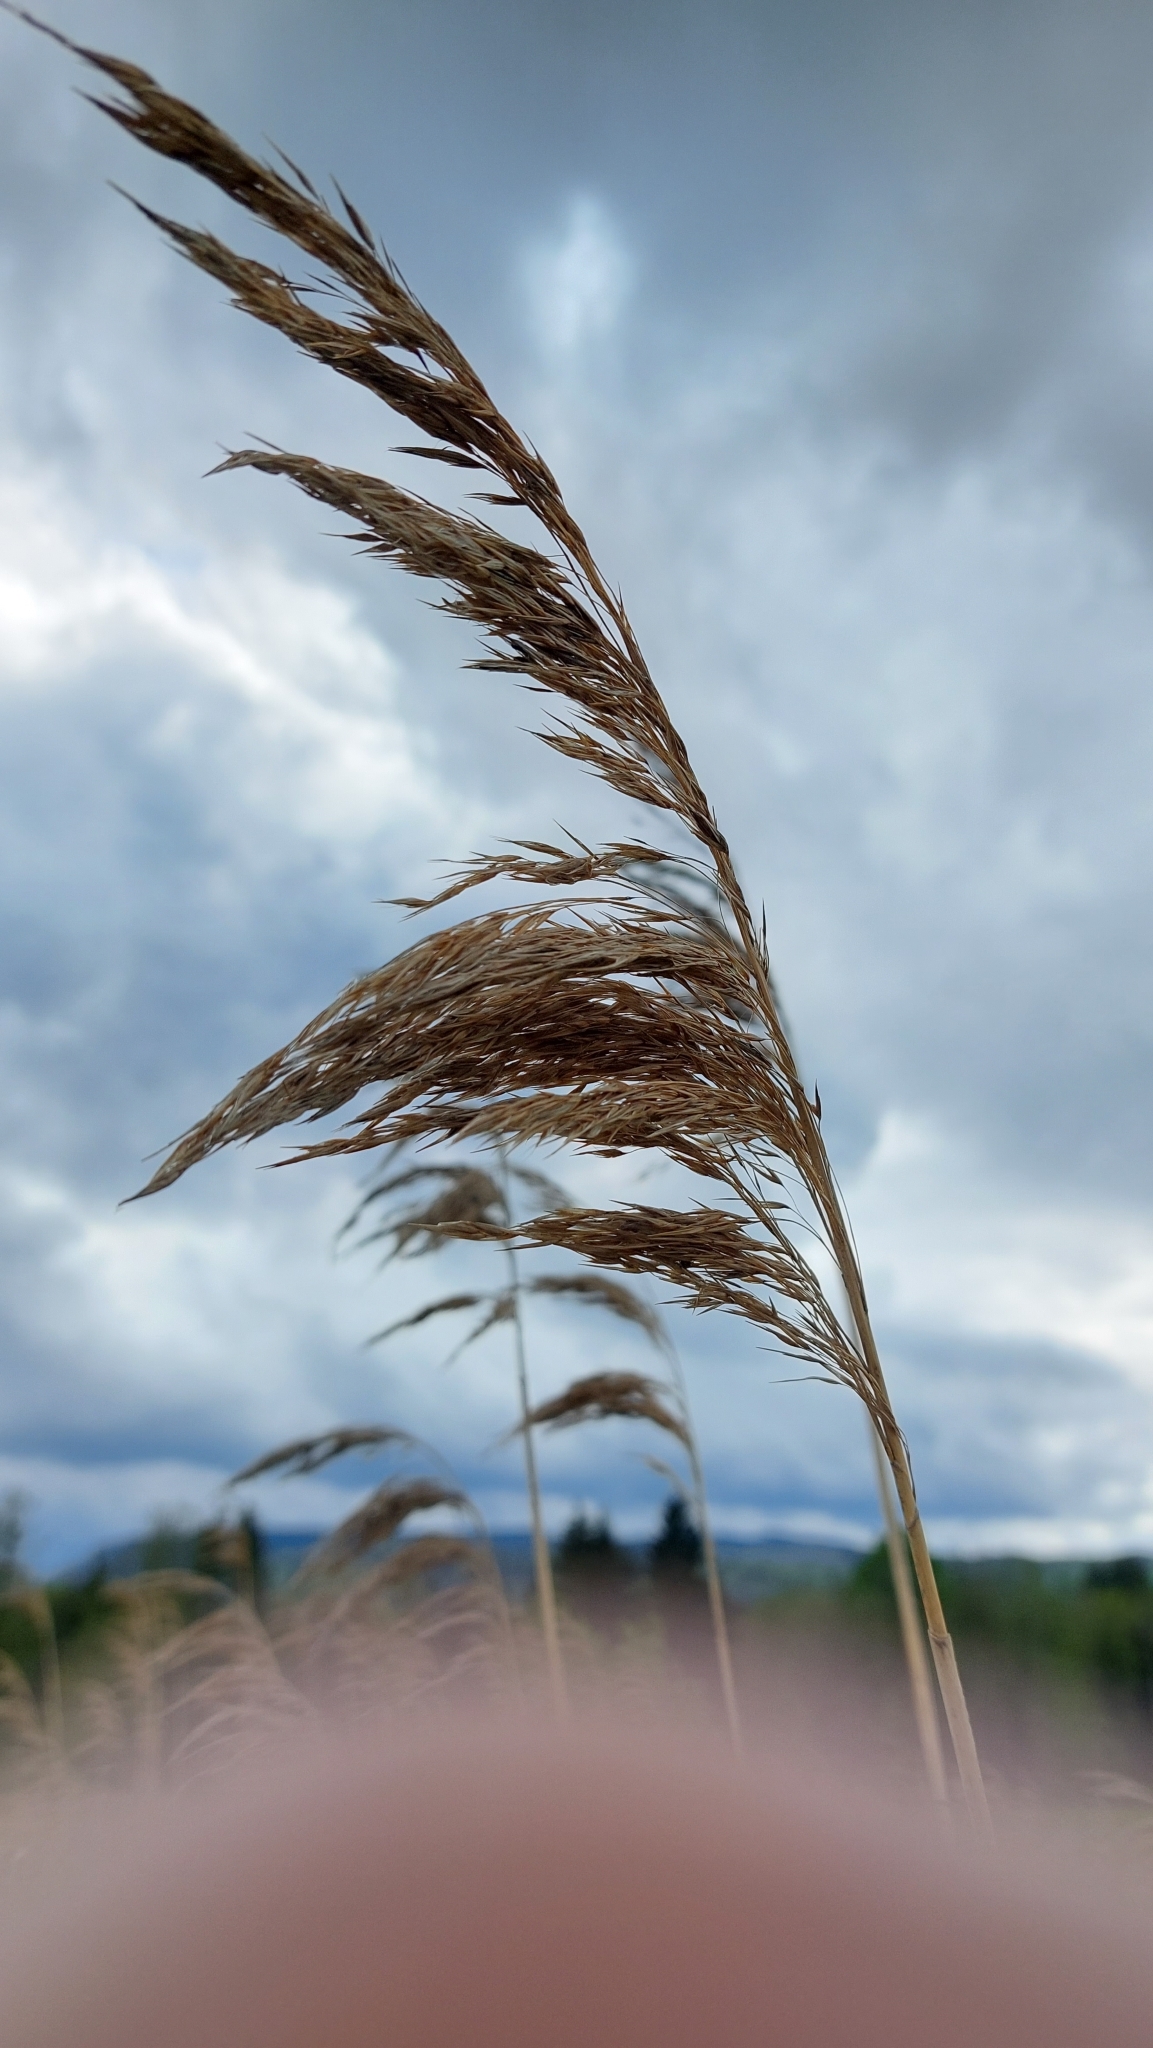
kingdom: Plantae
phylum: Tracheophyta
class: Liliopsida
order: Poales
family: Poaceae
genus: Phragmites
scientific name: Phragmites australis
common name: Common reed
